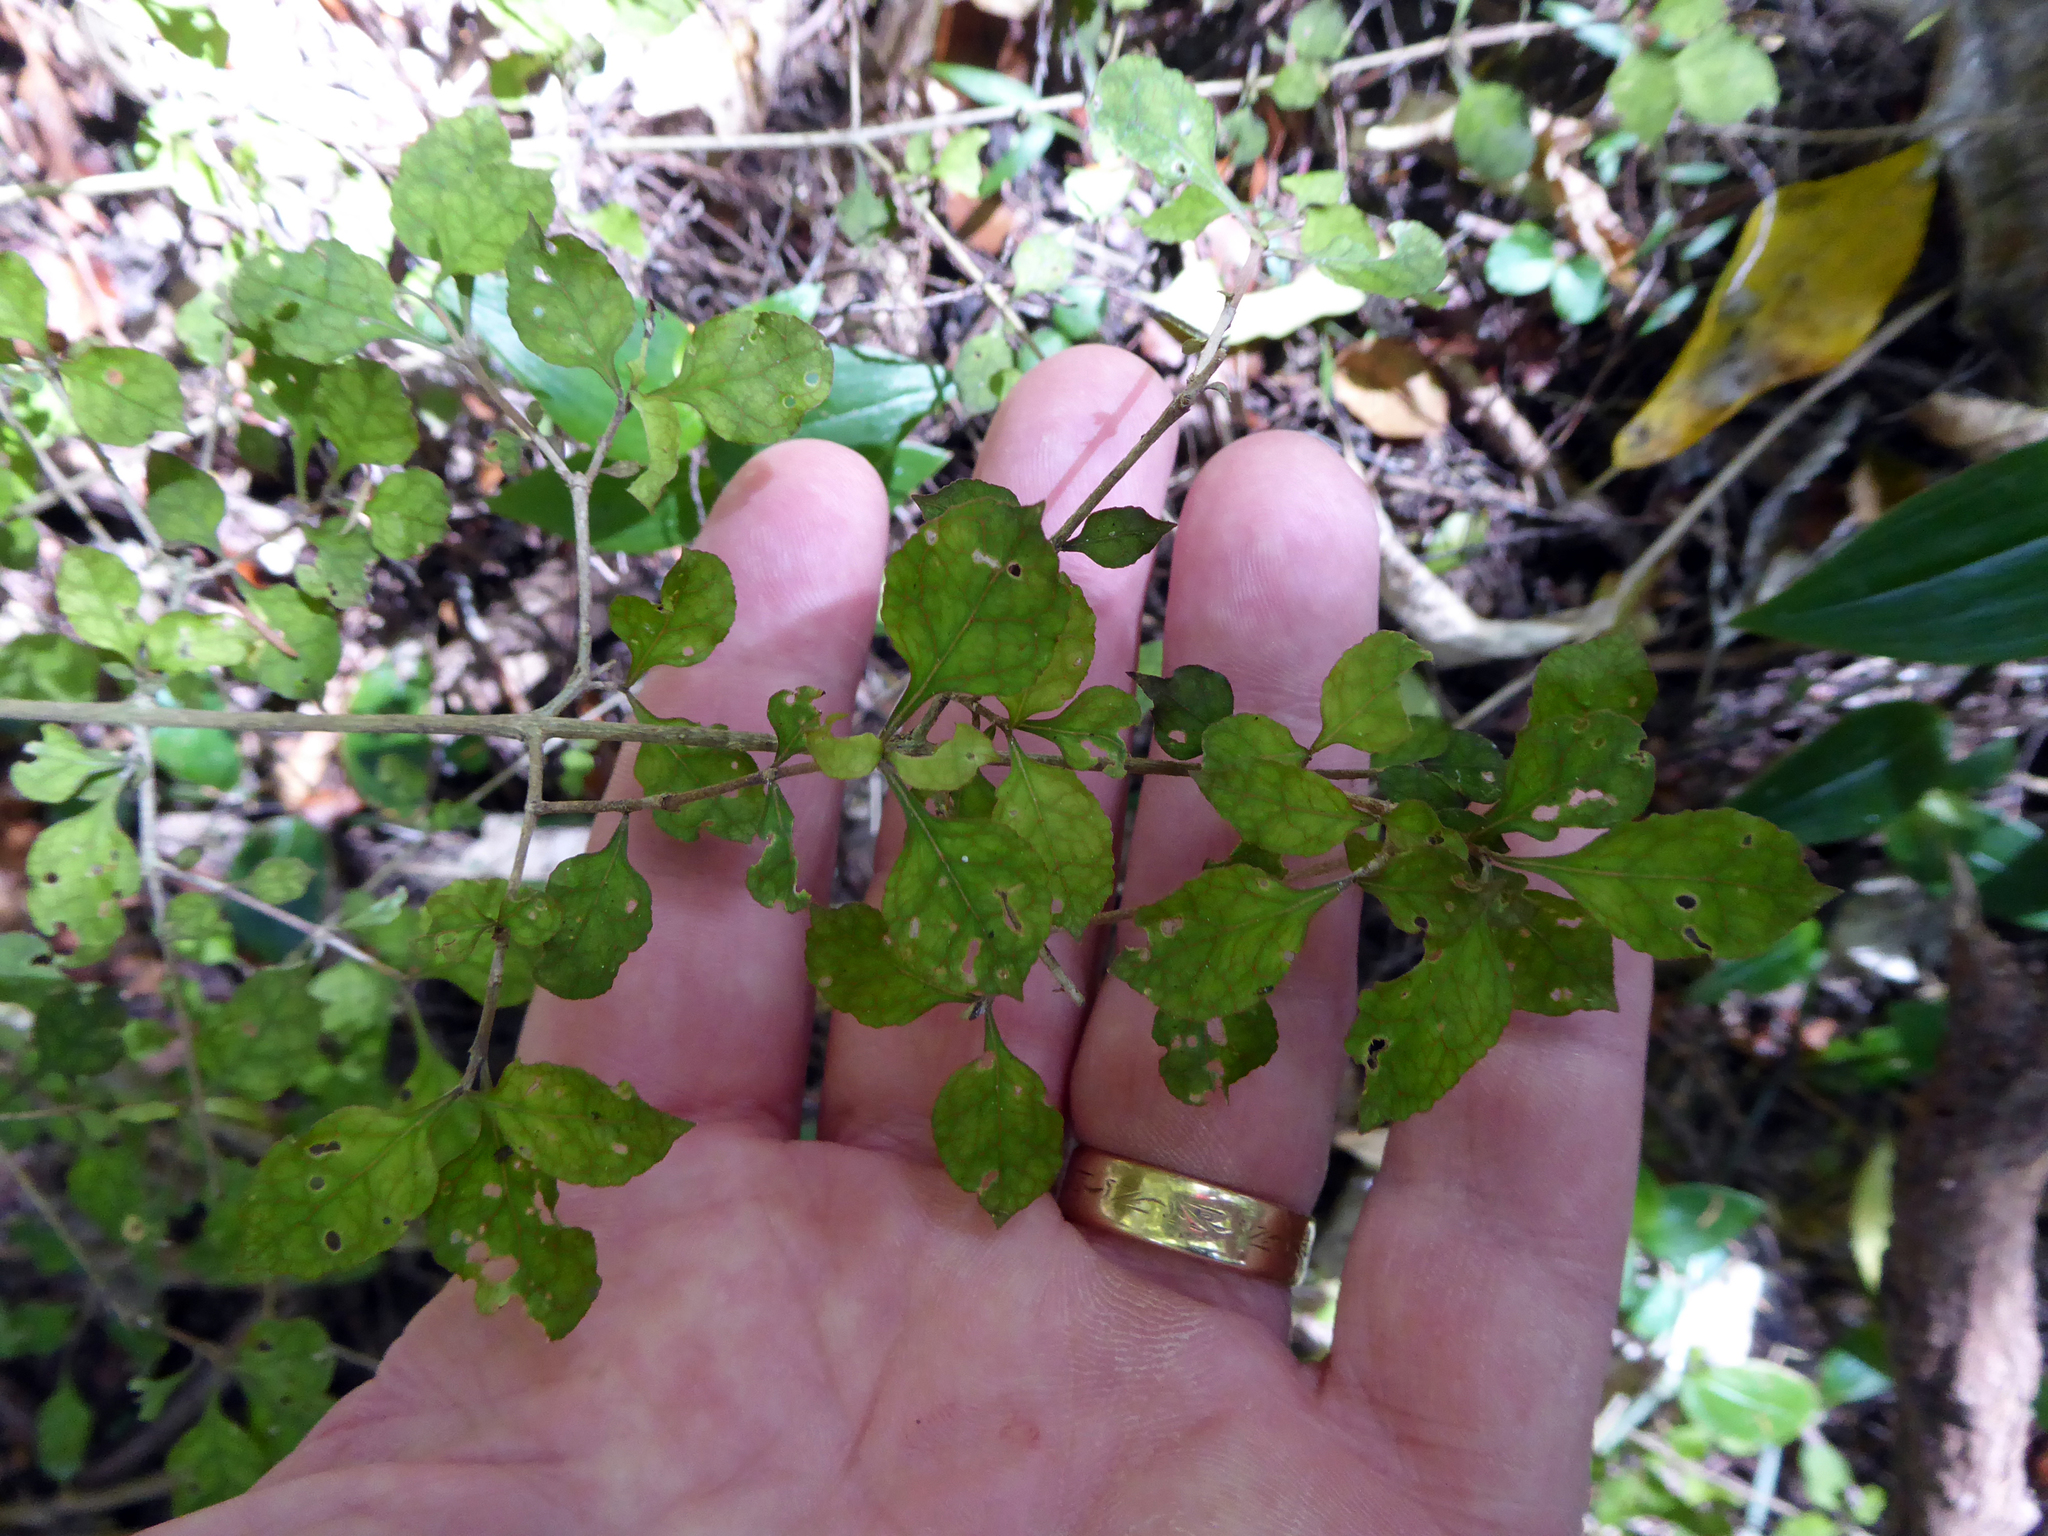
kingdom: Plantae
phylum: Tracheophyta
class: Magnoliopsida
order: Gentianales
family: Rubiaceae
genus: Coprosma
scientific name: Coprosma areolata
